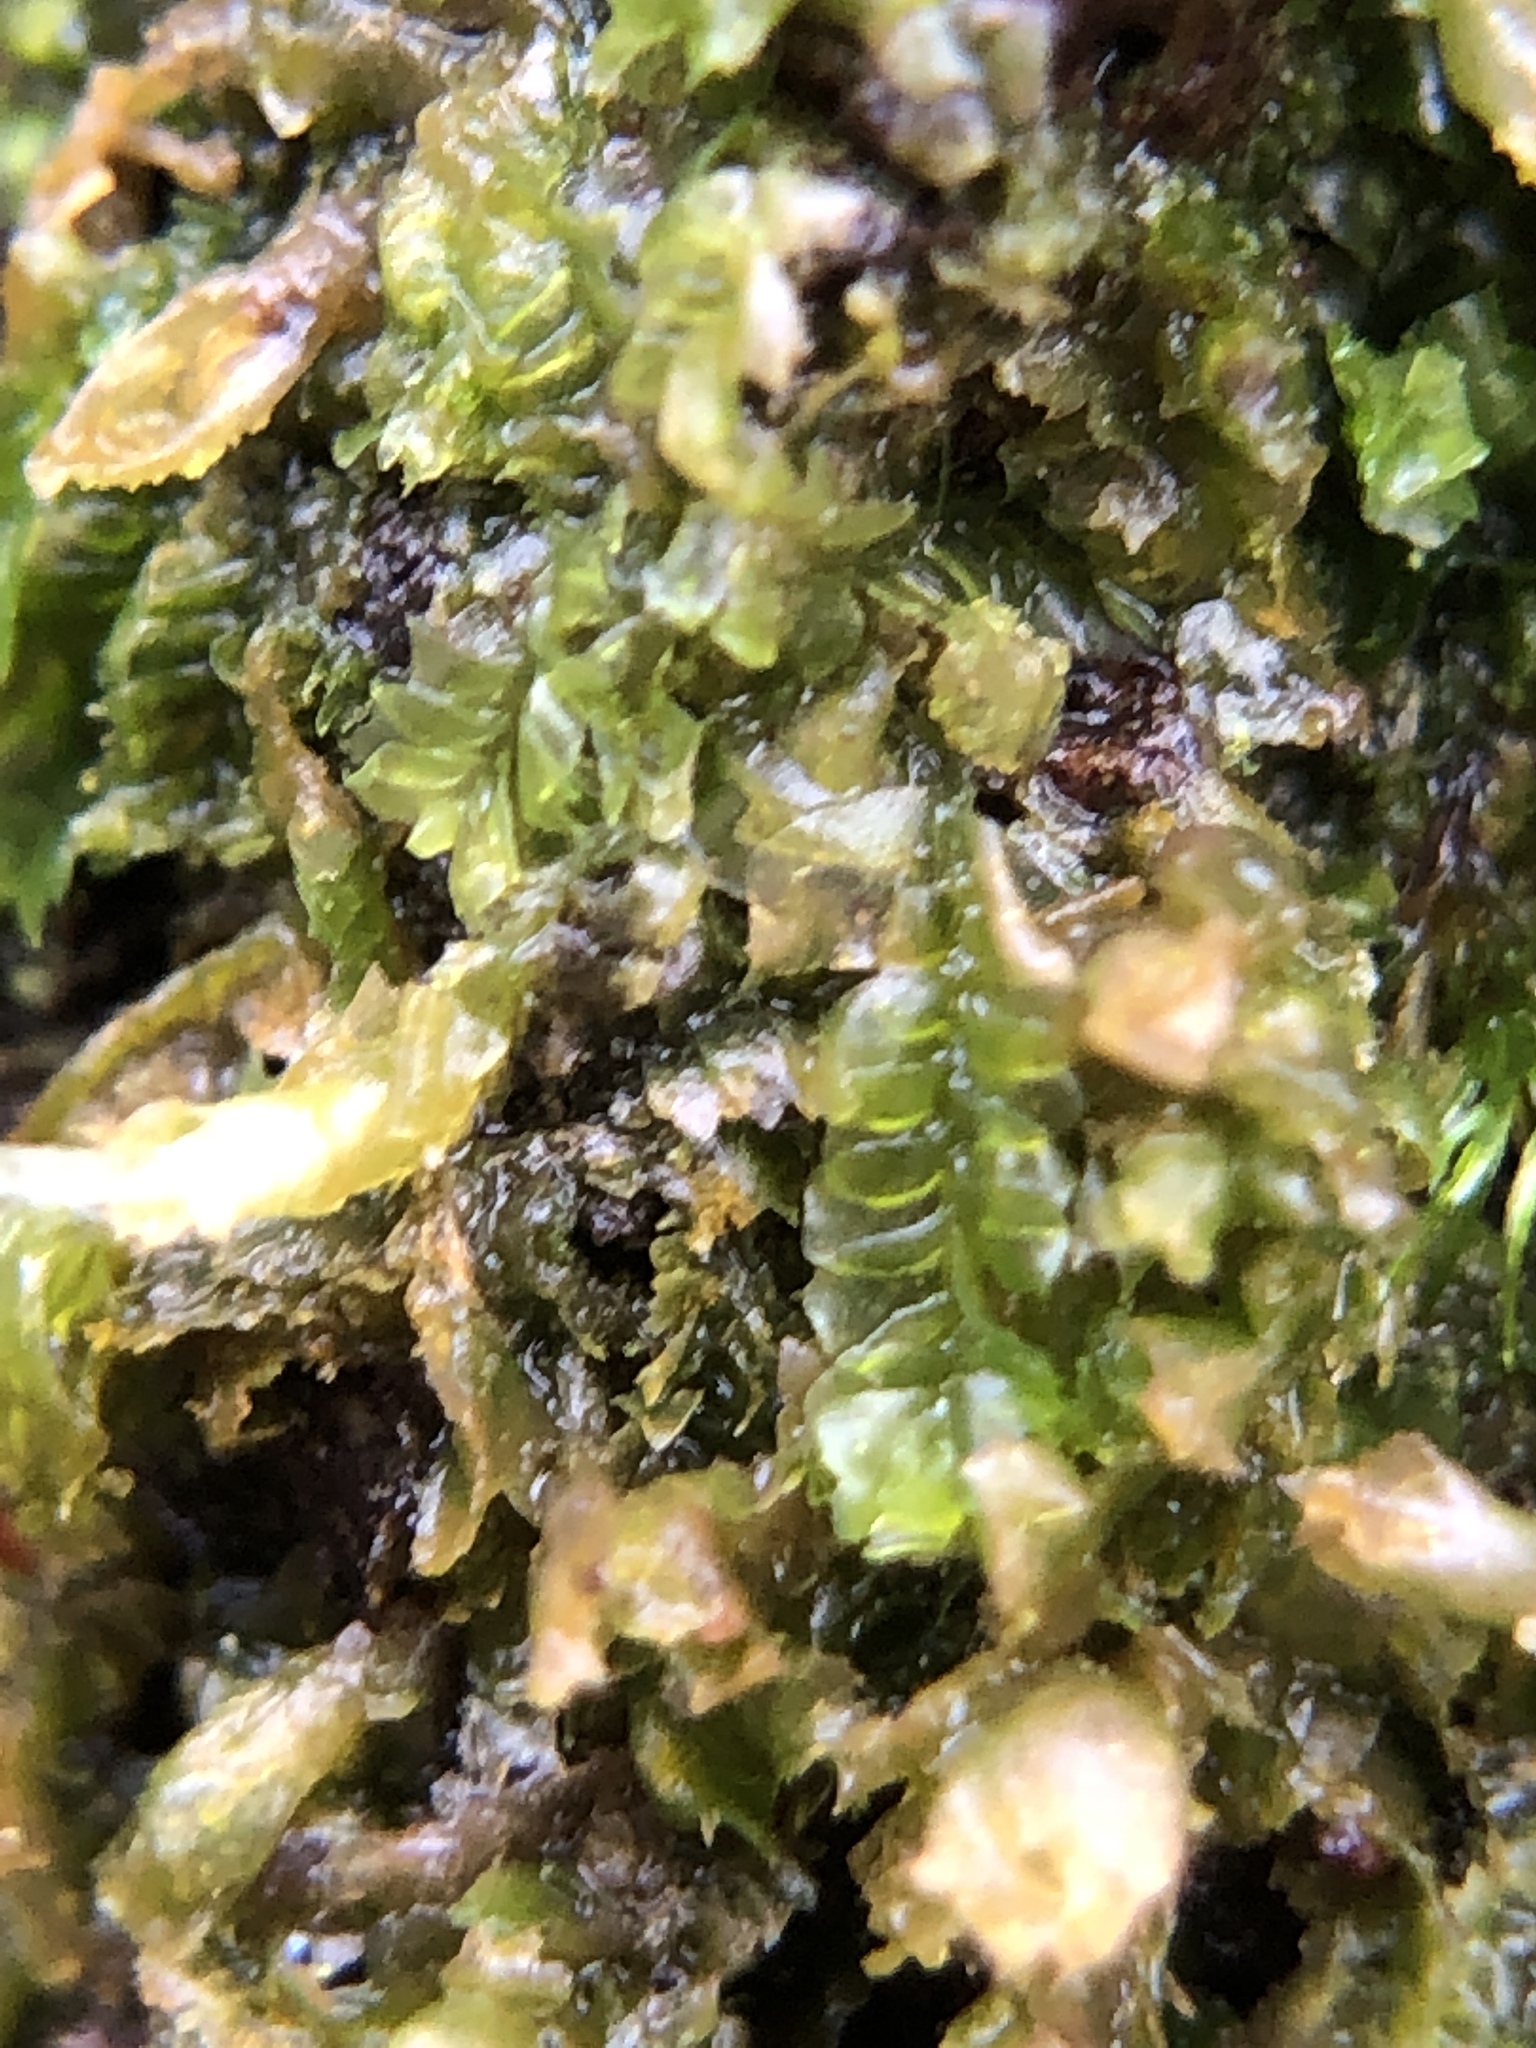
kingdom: Plantae
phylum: Marchantiophyta
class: Jungermanniopsida
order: Jungermanniales
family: Lophocoleaceae
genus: Lophocolea
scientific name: Lophocolea heterophylla
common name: Variable-leaved crestwort
